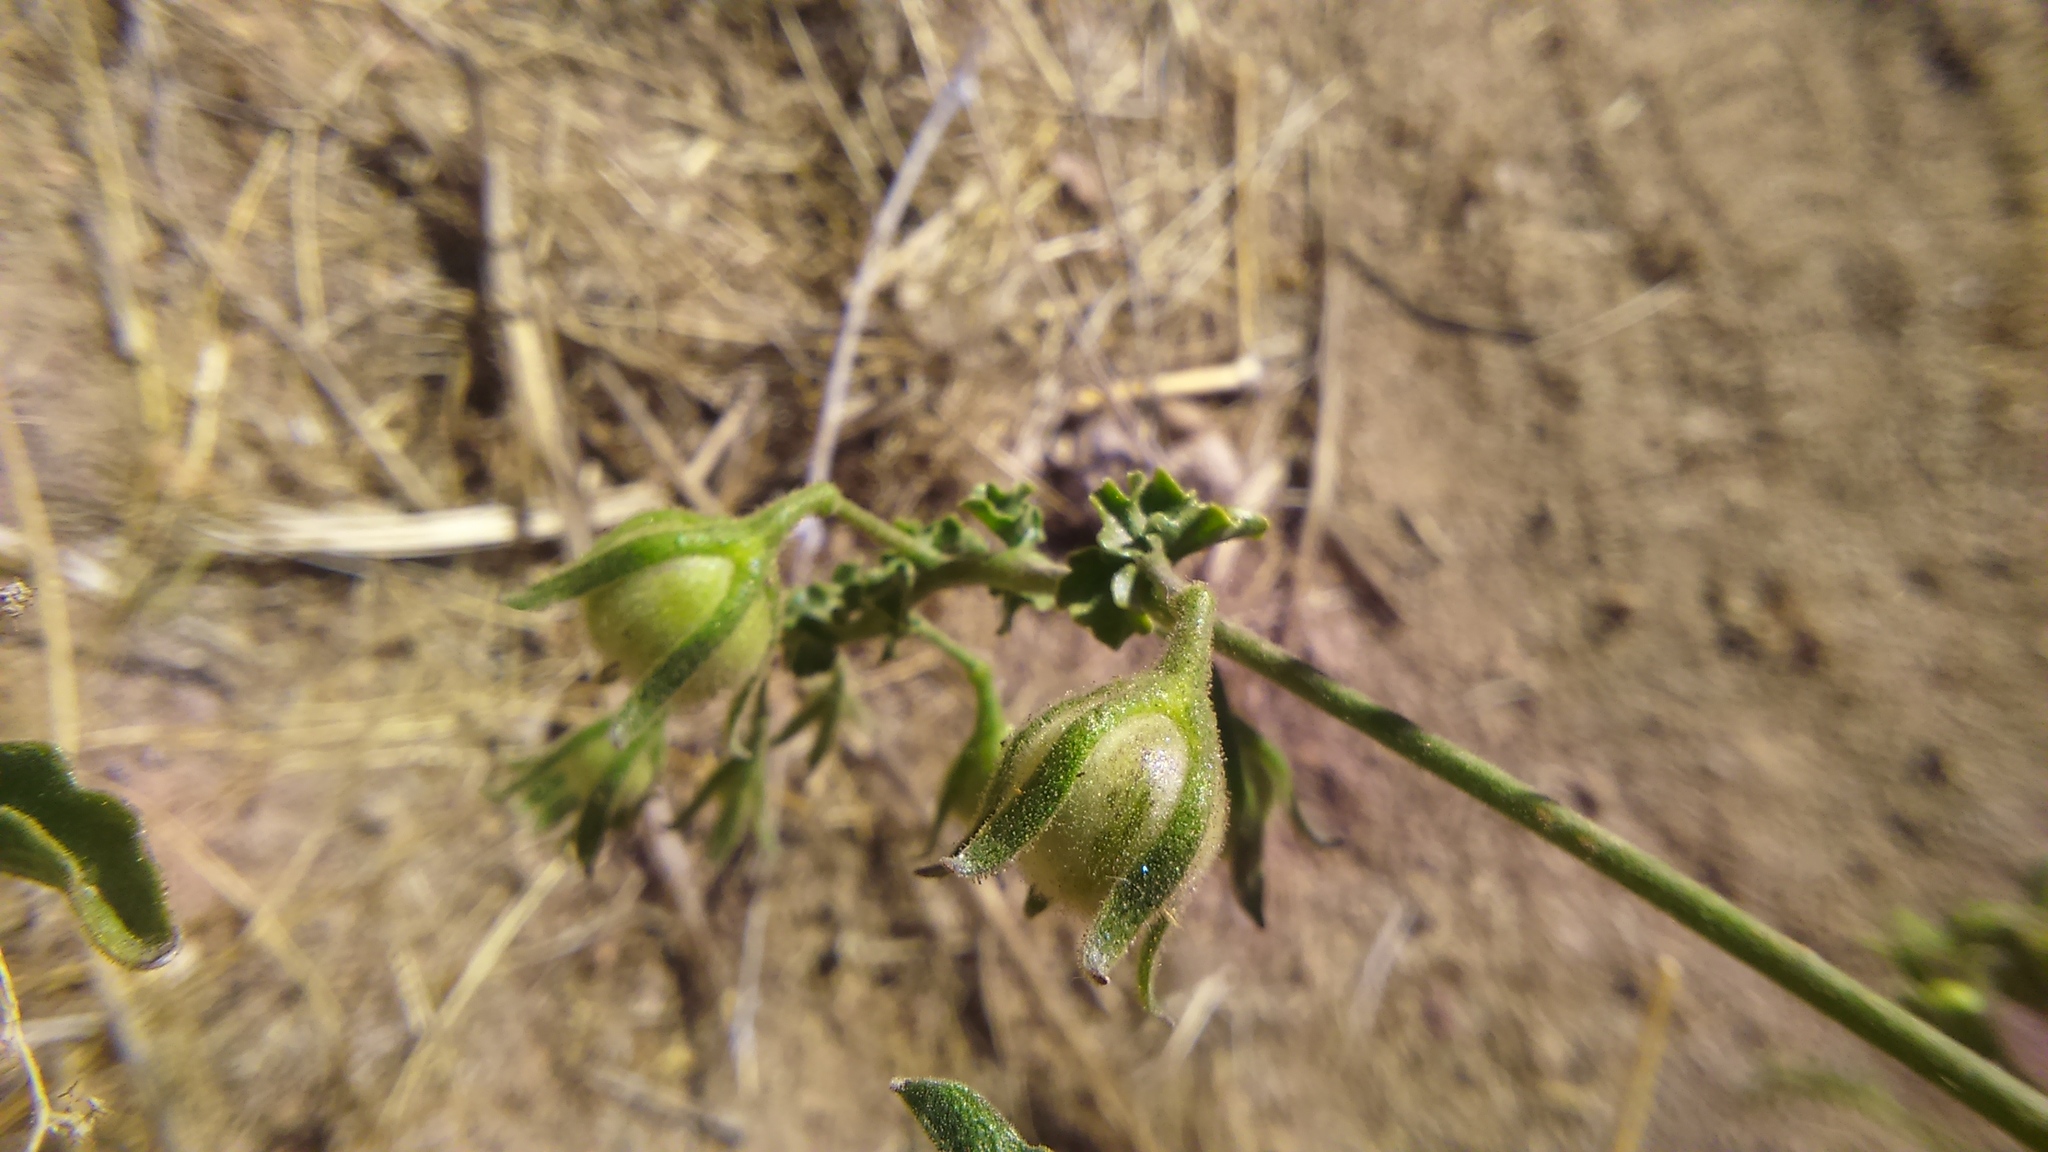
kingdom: Plantae
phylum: Tracheophyta
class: Magnoliopsida
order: Solanales
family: Solanaceae
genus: Solanum
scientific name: Solanum corneliomulleri
